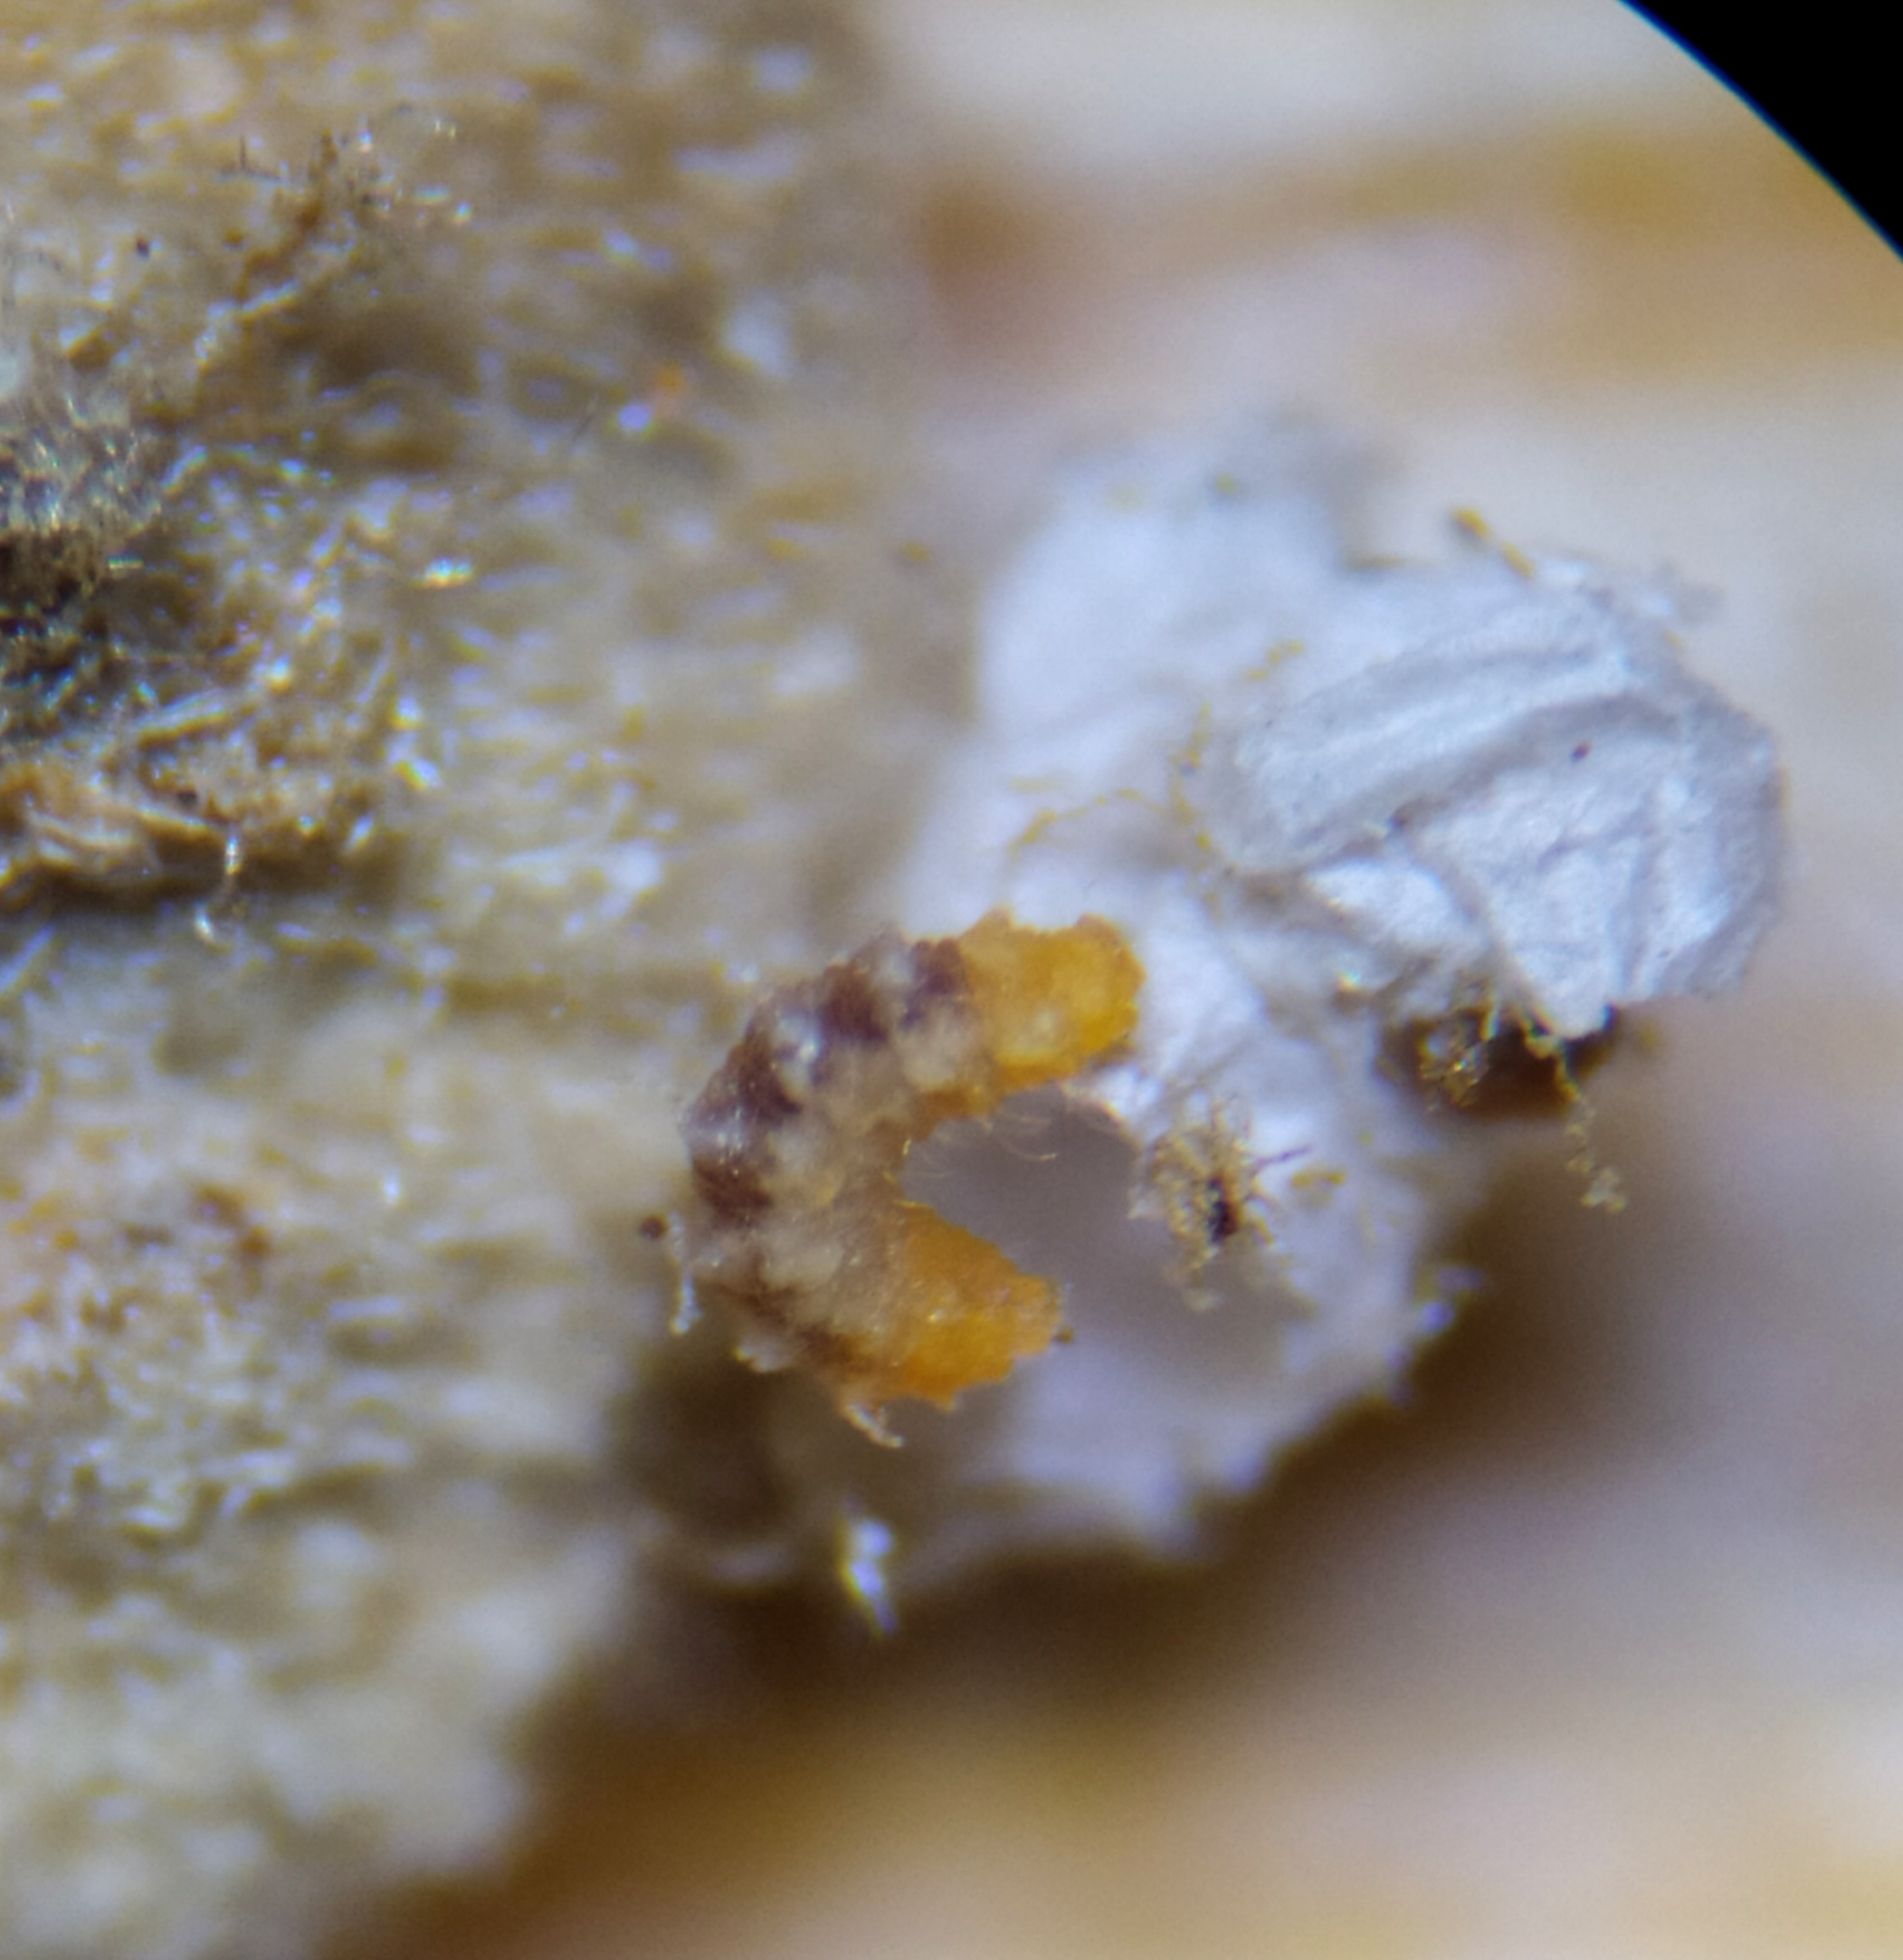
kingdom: Animalia
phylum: Arthropoda
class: Insecta
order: Diptera
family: Cecidomyiidae
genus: Arthrocnodax
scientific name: Arthrocnodax fraxinellus
